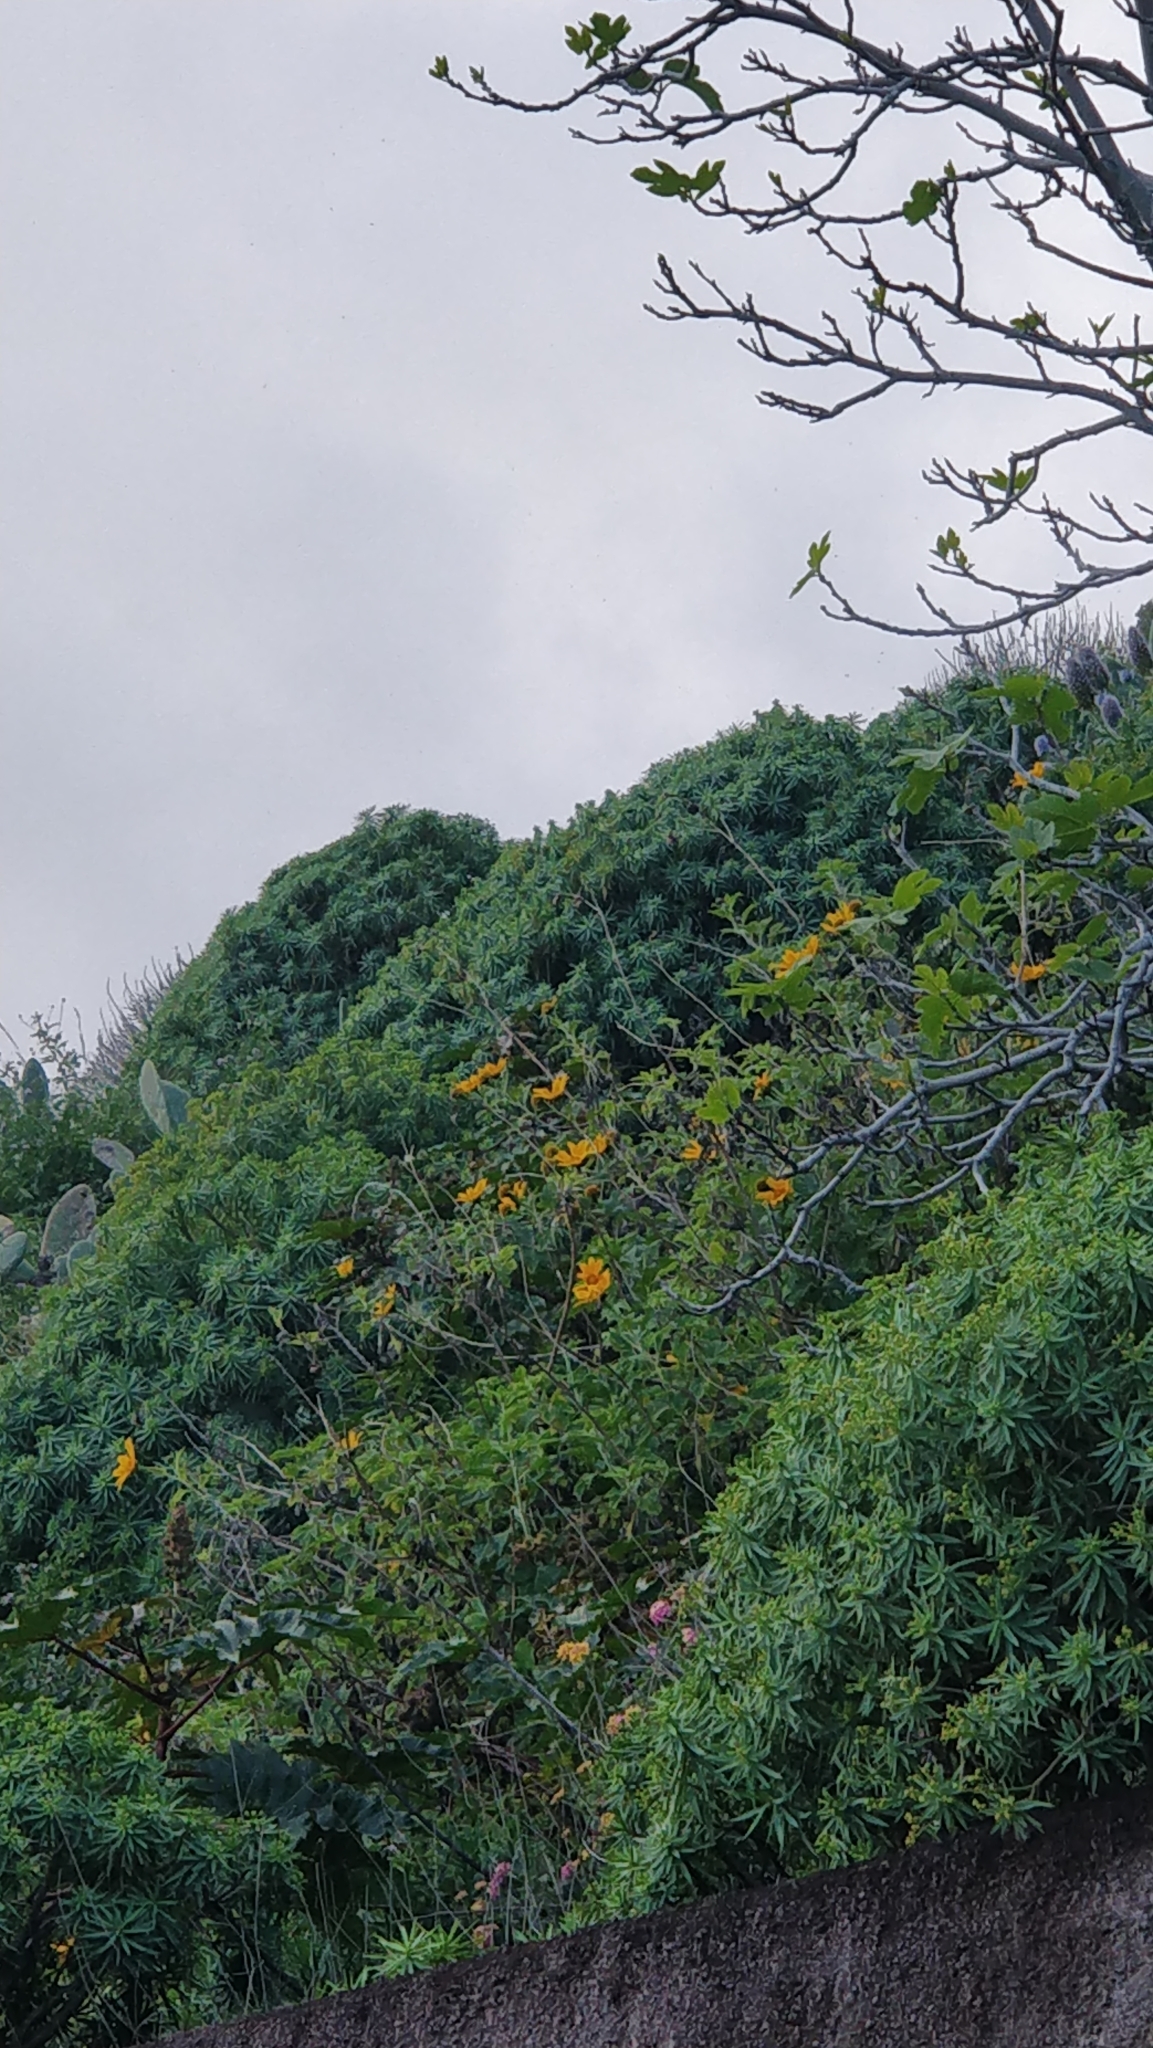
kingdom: Plantae
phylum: Tracheophyta
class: Magnoliopsida
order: Asterales
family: Asteraceae
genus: Tithonia
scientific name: Tithonia diversifolia
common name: Tree marigold
